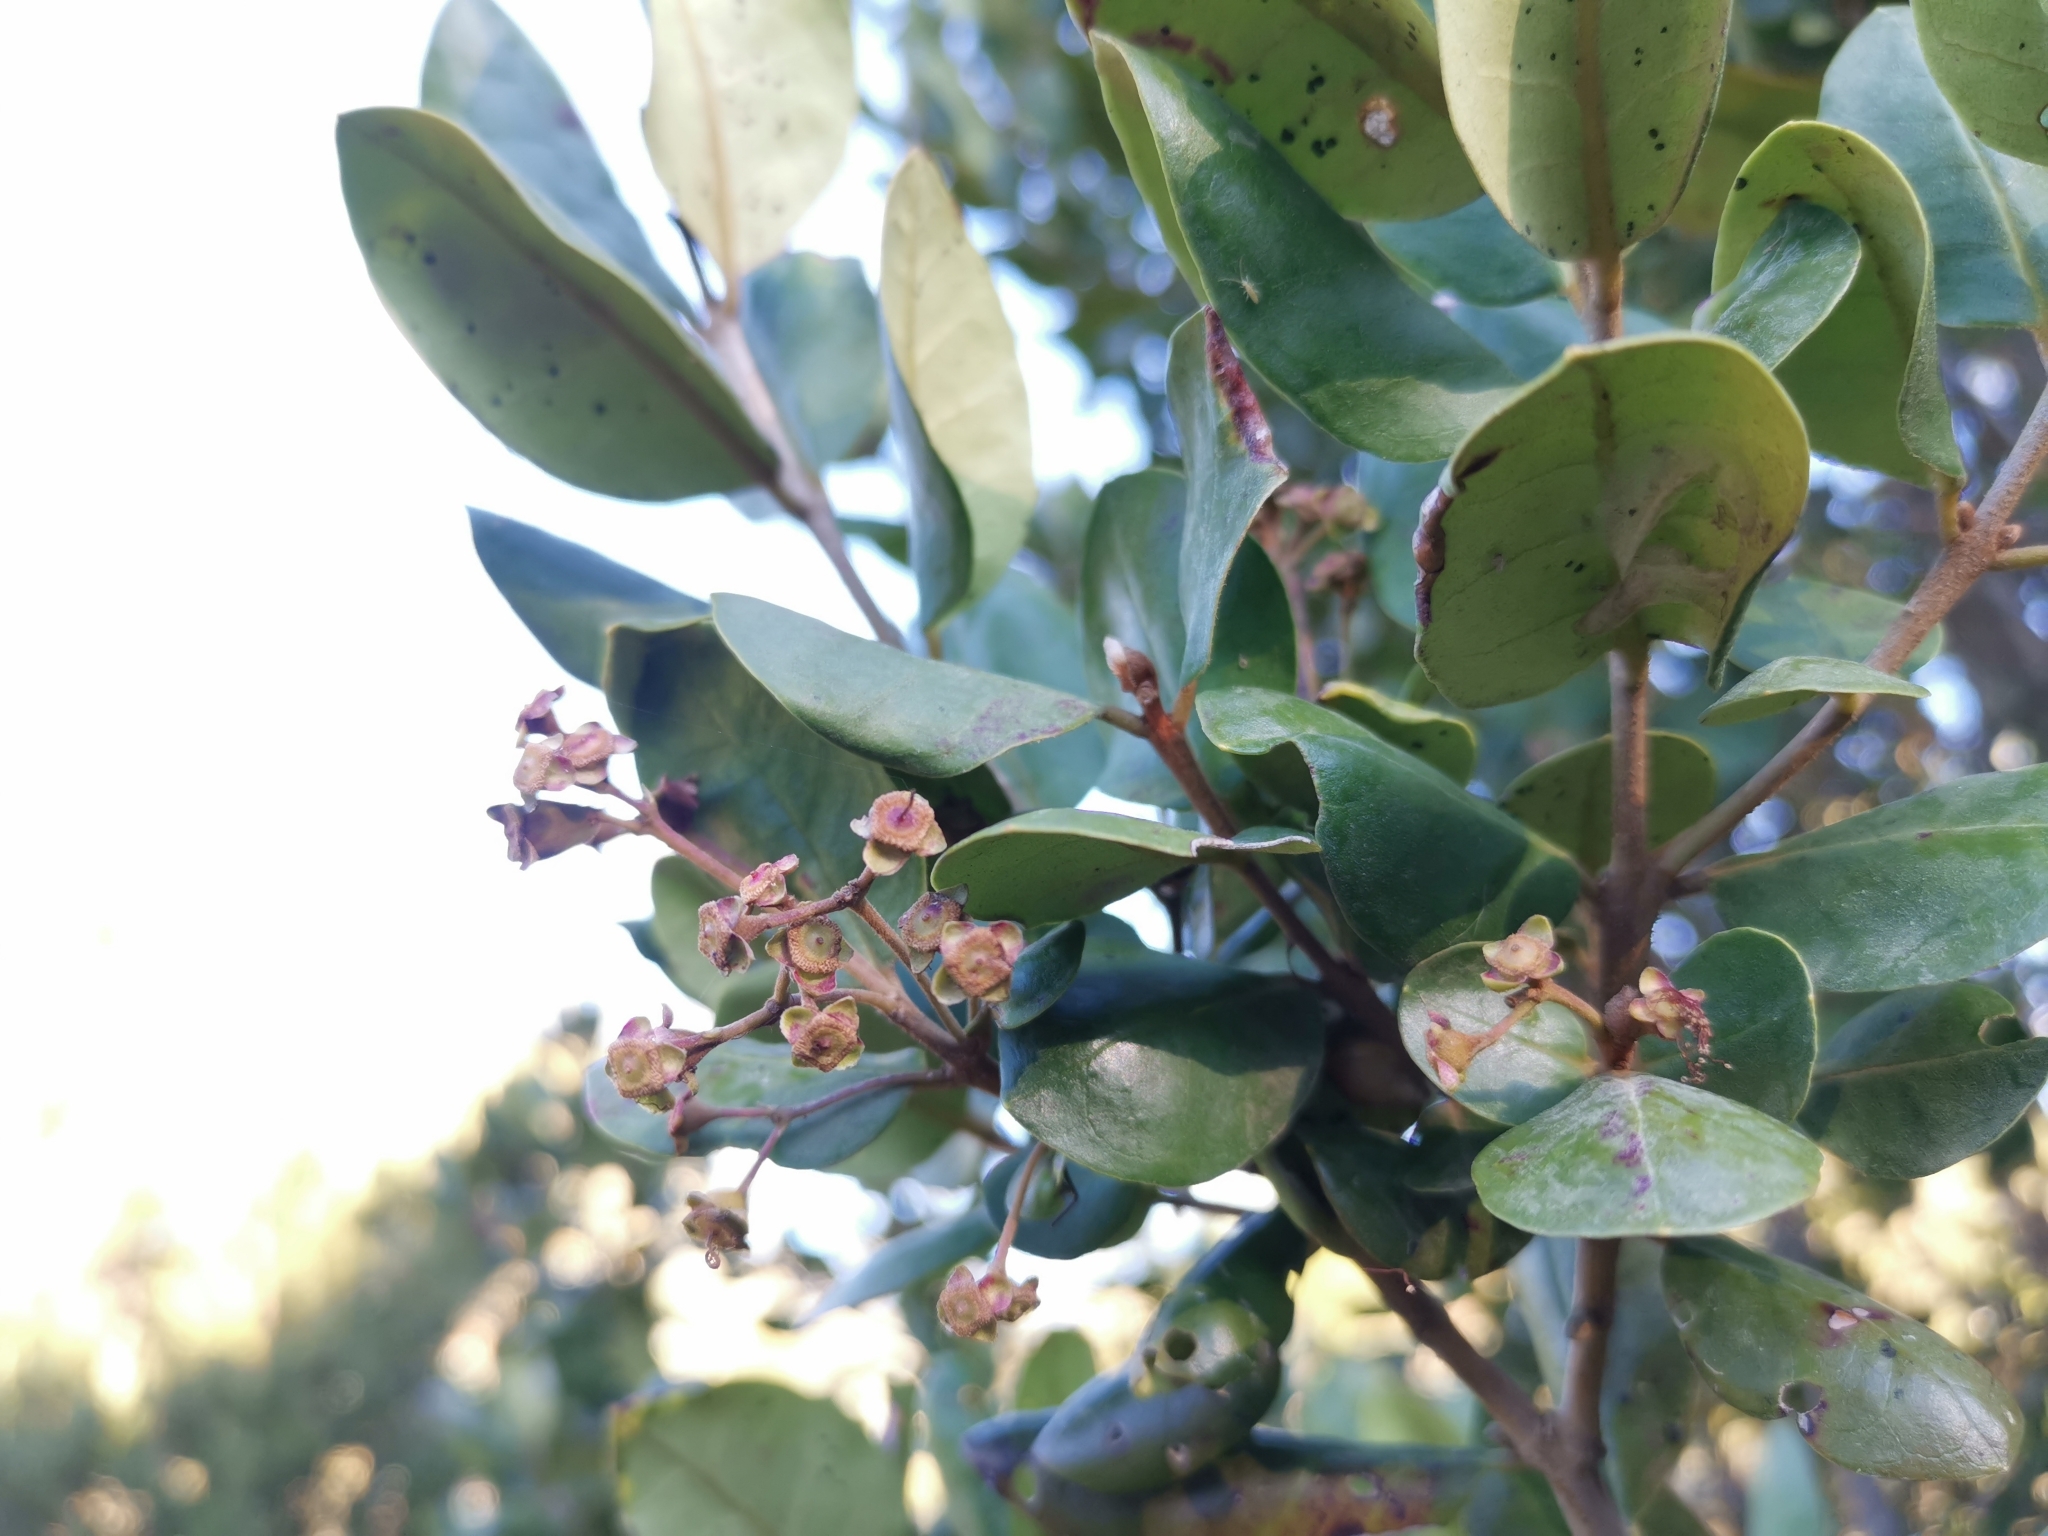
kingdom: Plantae
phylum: Tracheophyta
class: Magnoliopsida
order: Myrtales
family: Myrtaceae
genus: Myrceugenia
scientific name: Myrceugenia exsucca
